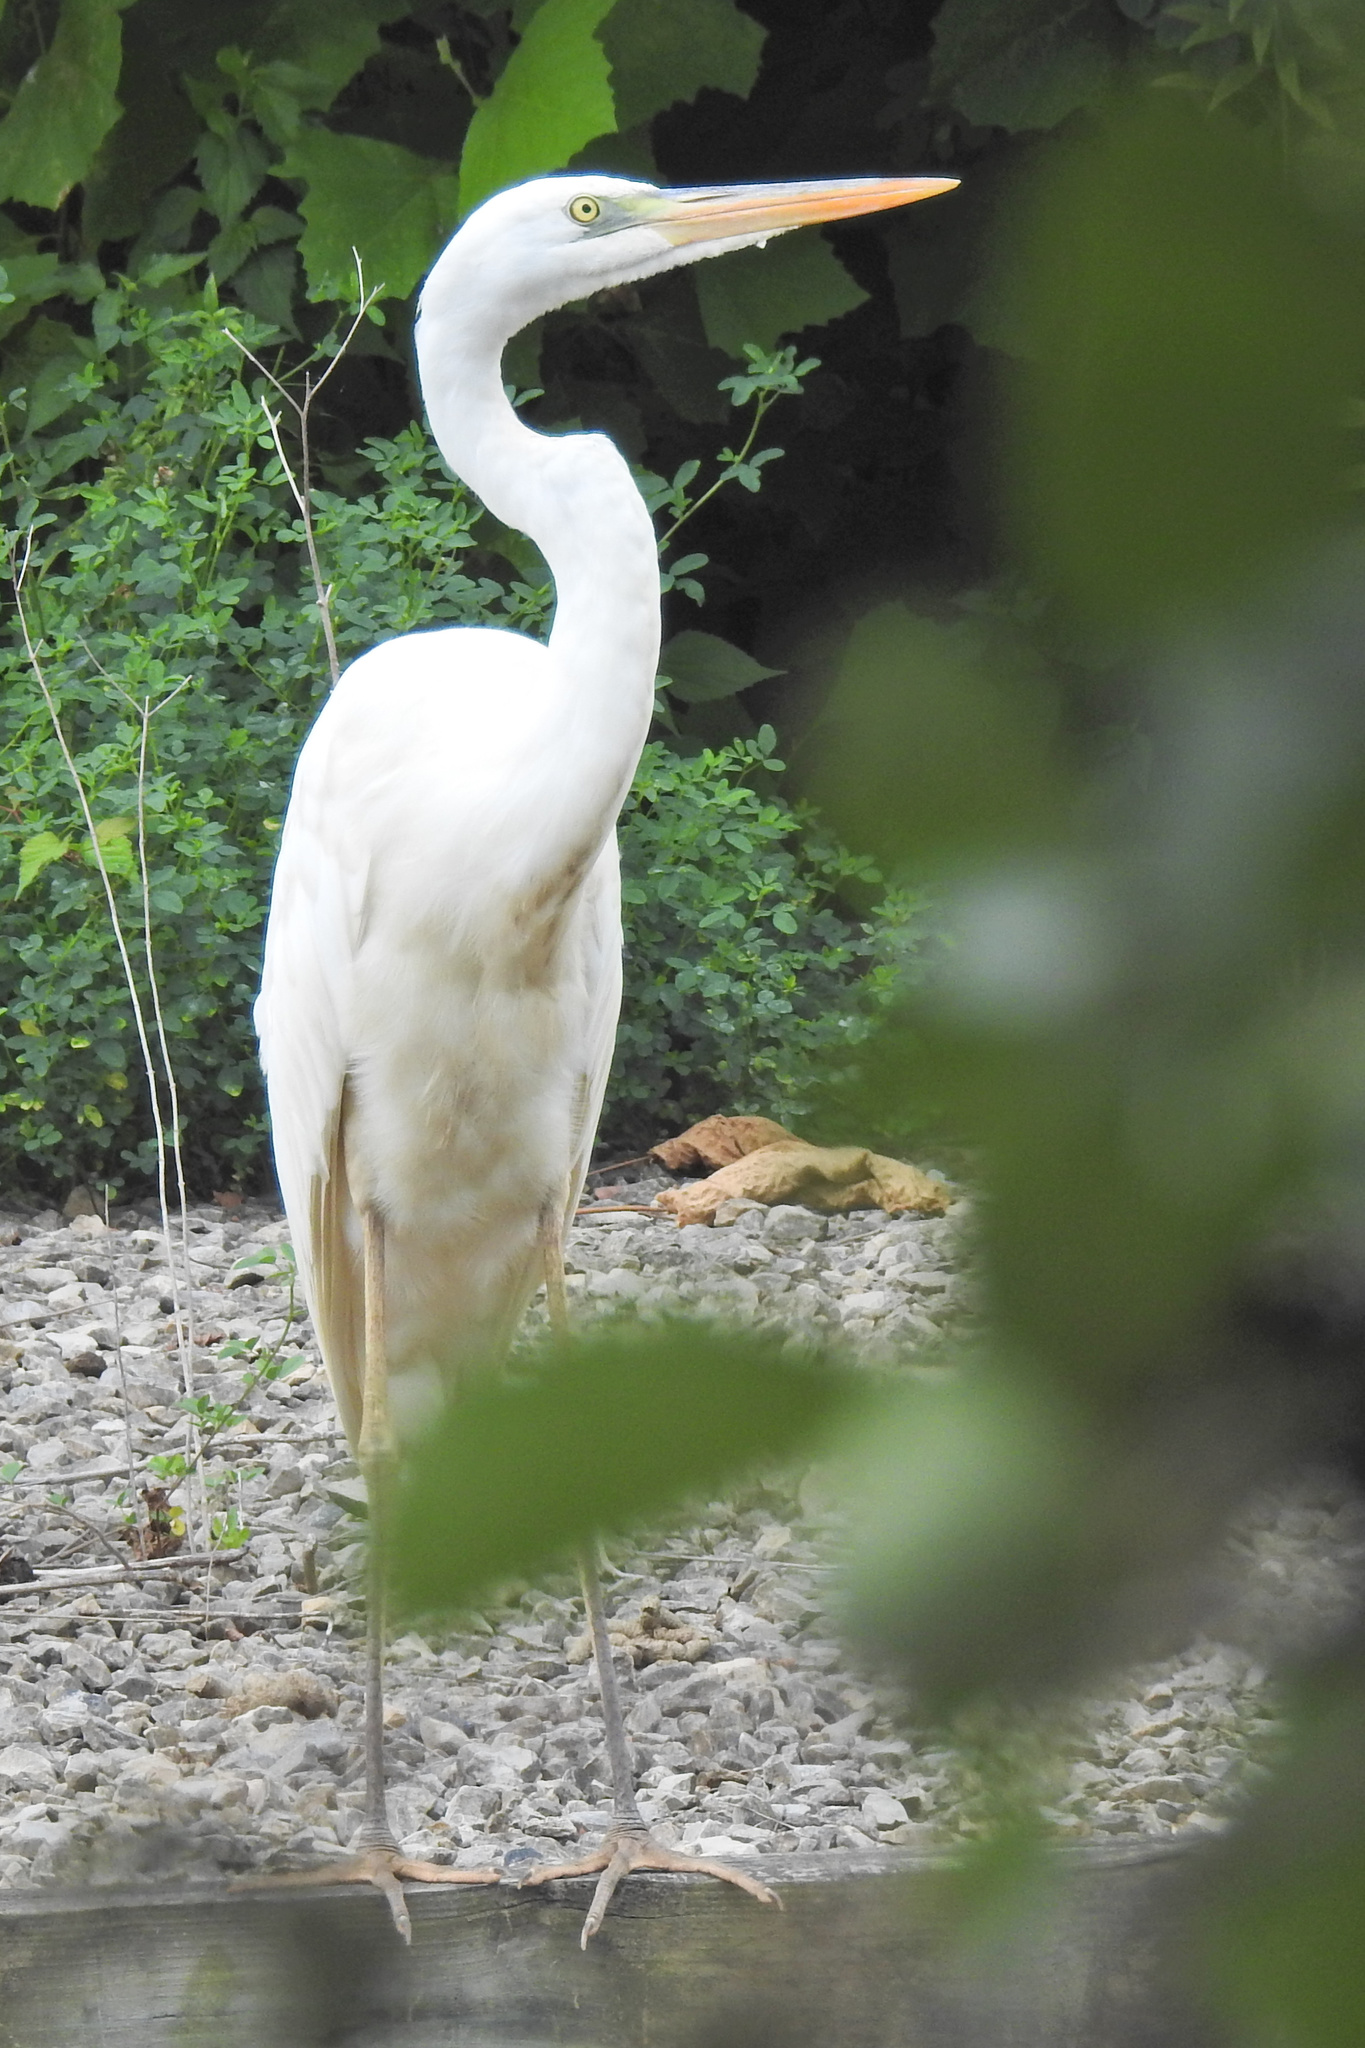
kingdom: Animalia
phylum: Chordata
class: Aves
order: Pelecaniformes
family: Ardeidae
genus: Ardea
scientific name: Ardea herodias
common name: Great blue heron
